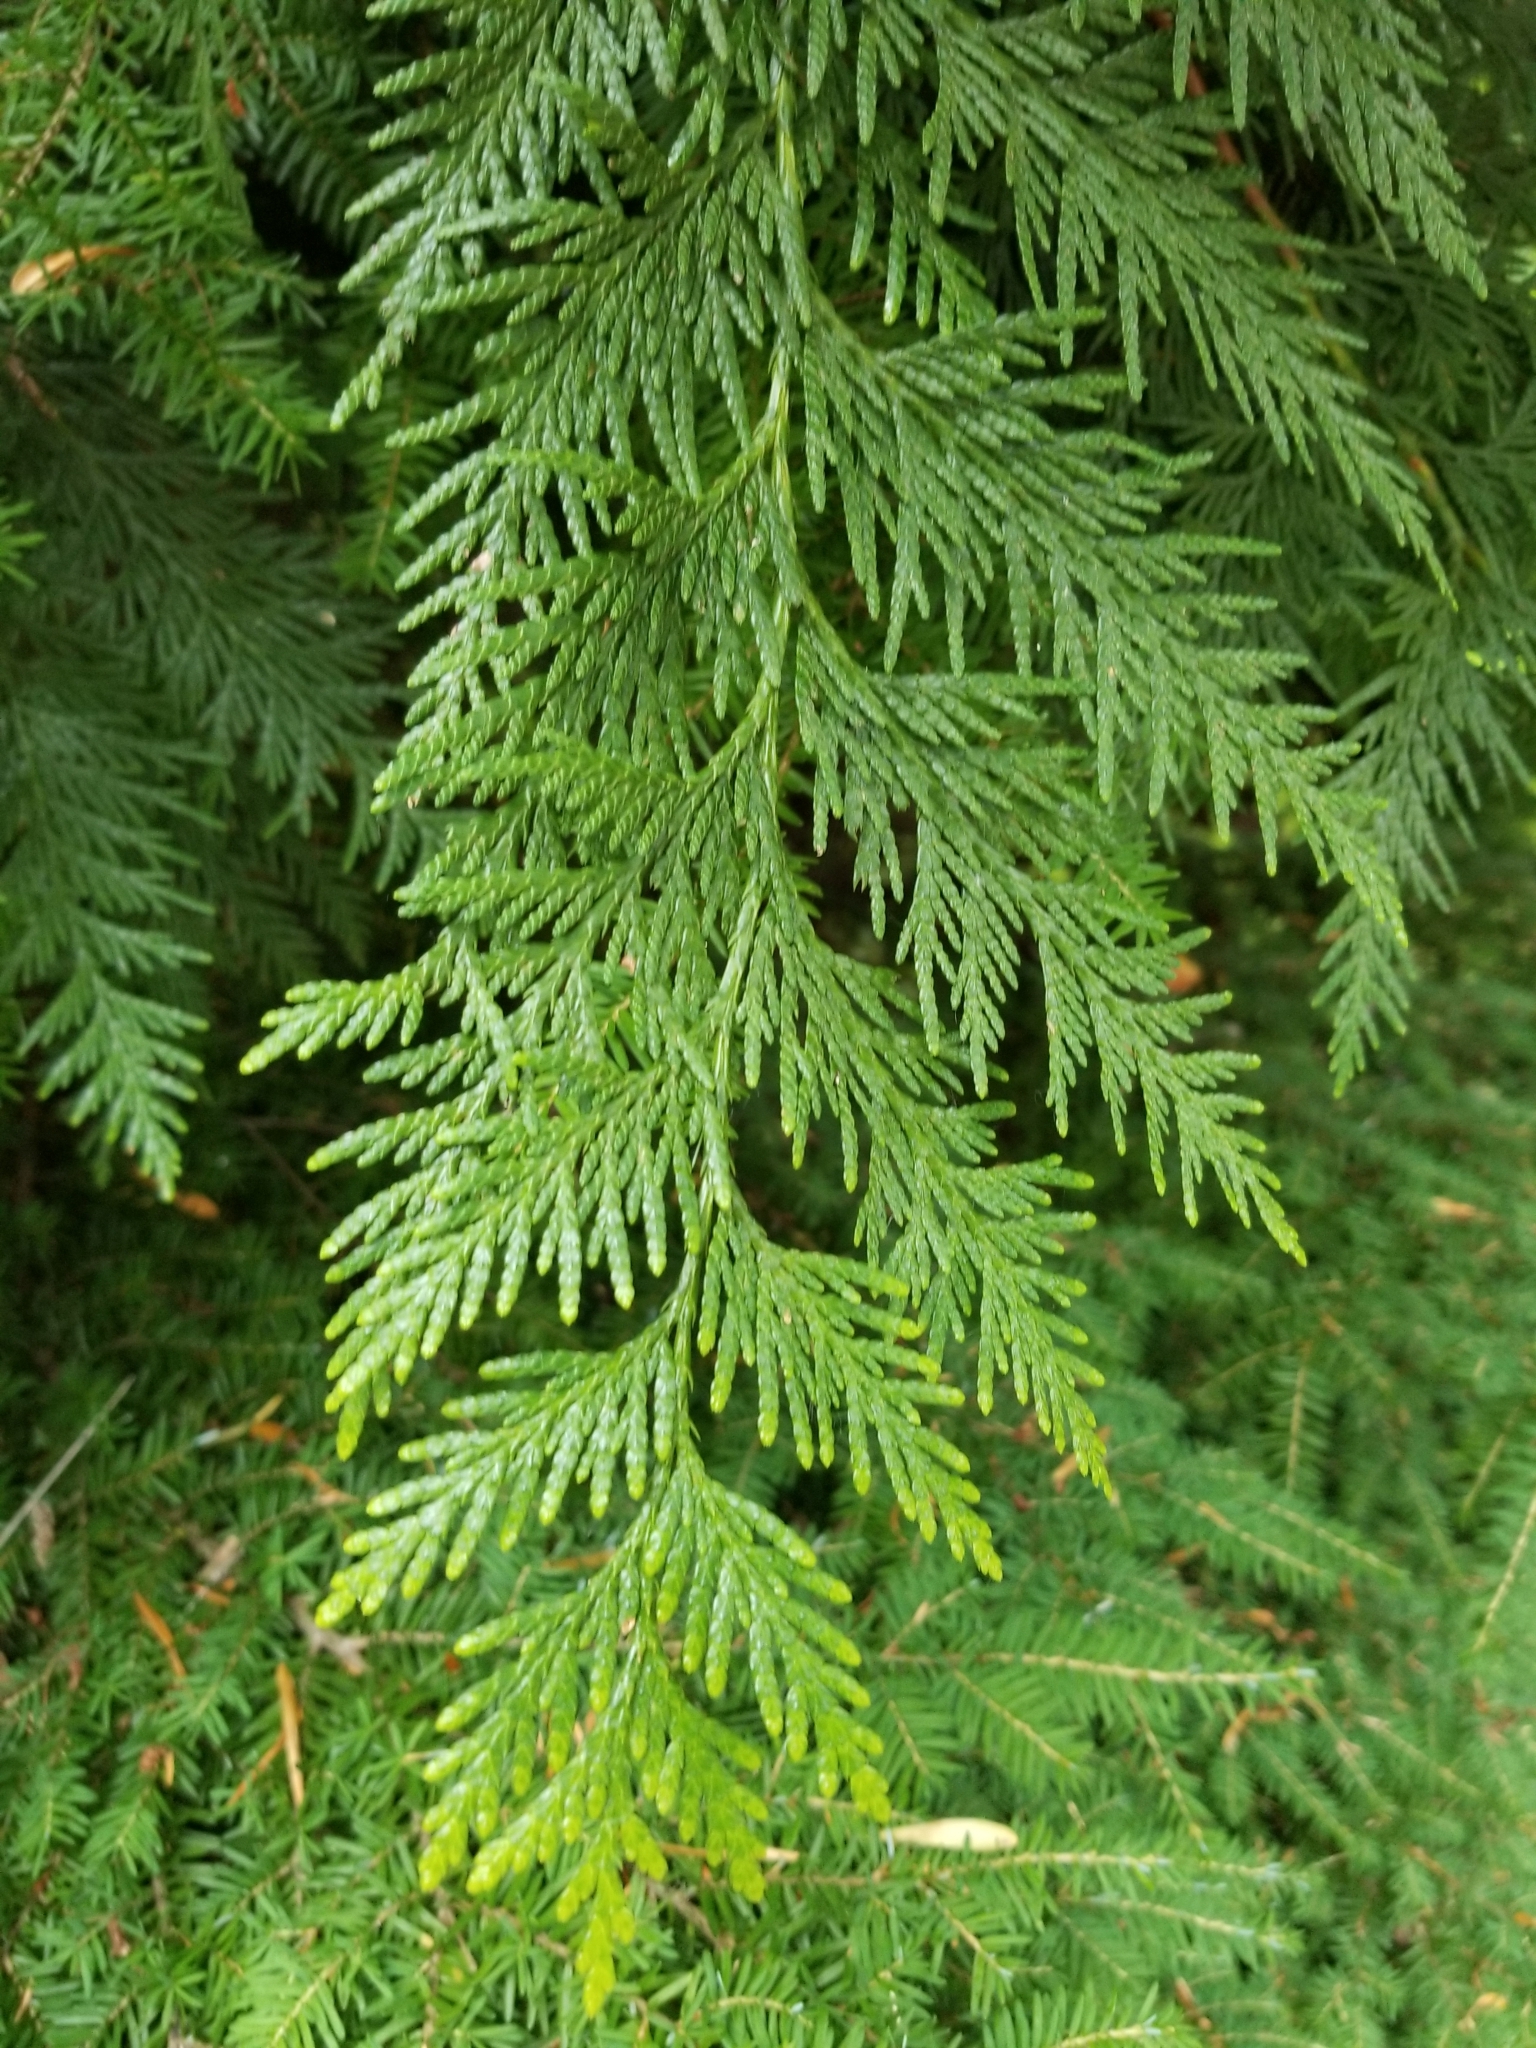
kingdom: Plantae
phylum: Tracheophyta
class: Pinopsida
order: Pinales
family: Cupressaceae
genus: Thuja
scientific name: Thuja plicata
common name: Western red-cedar
